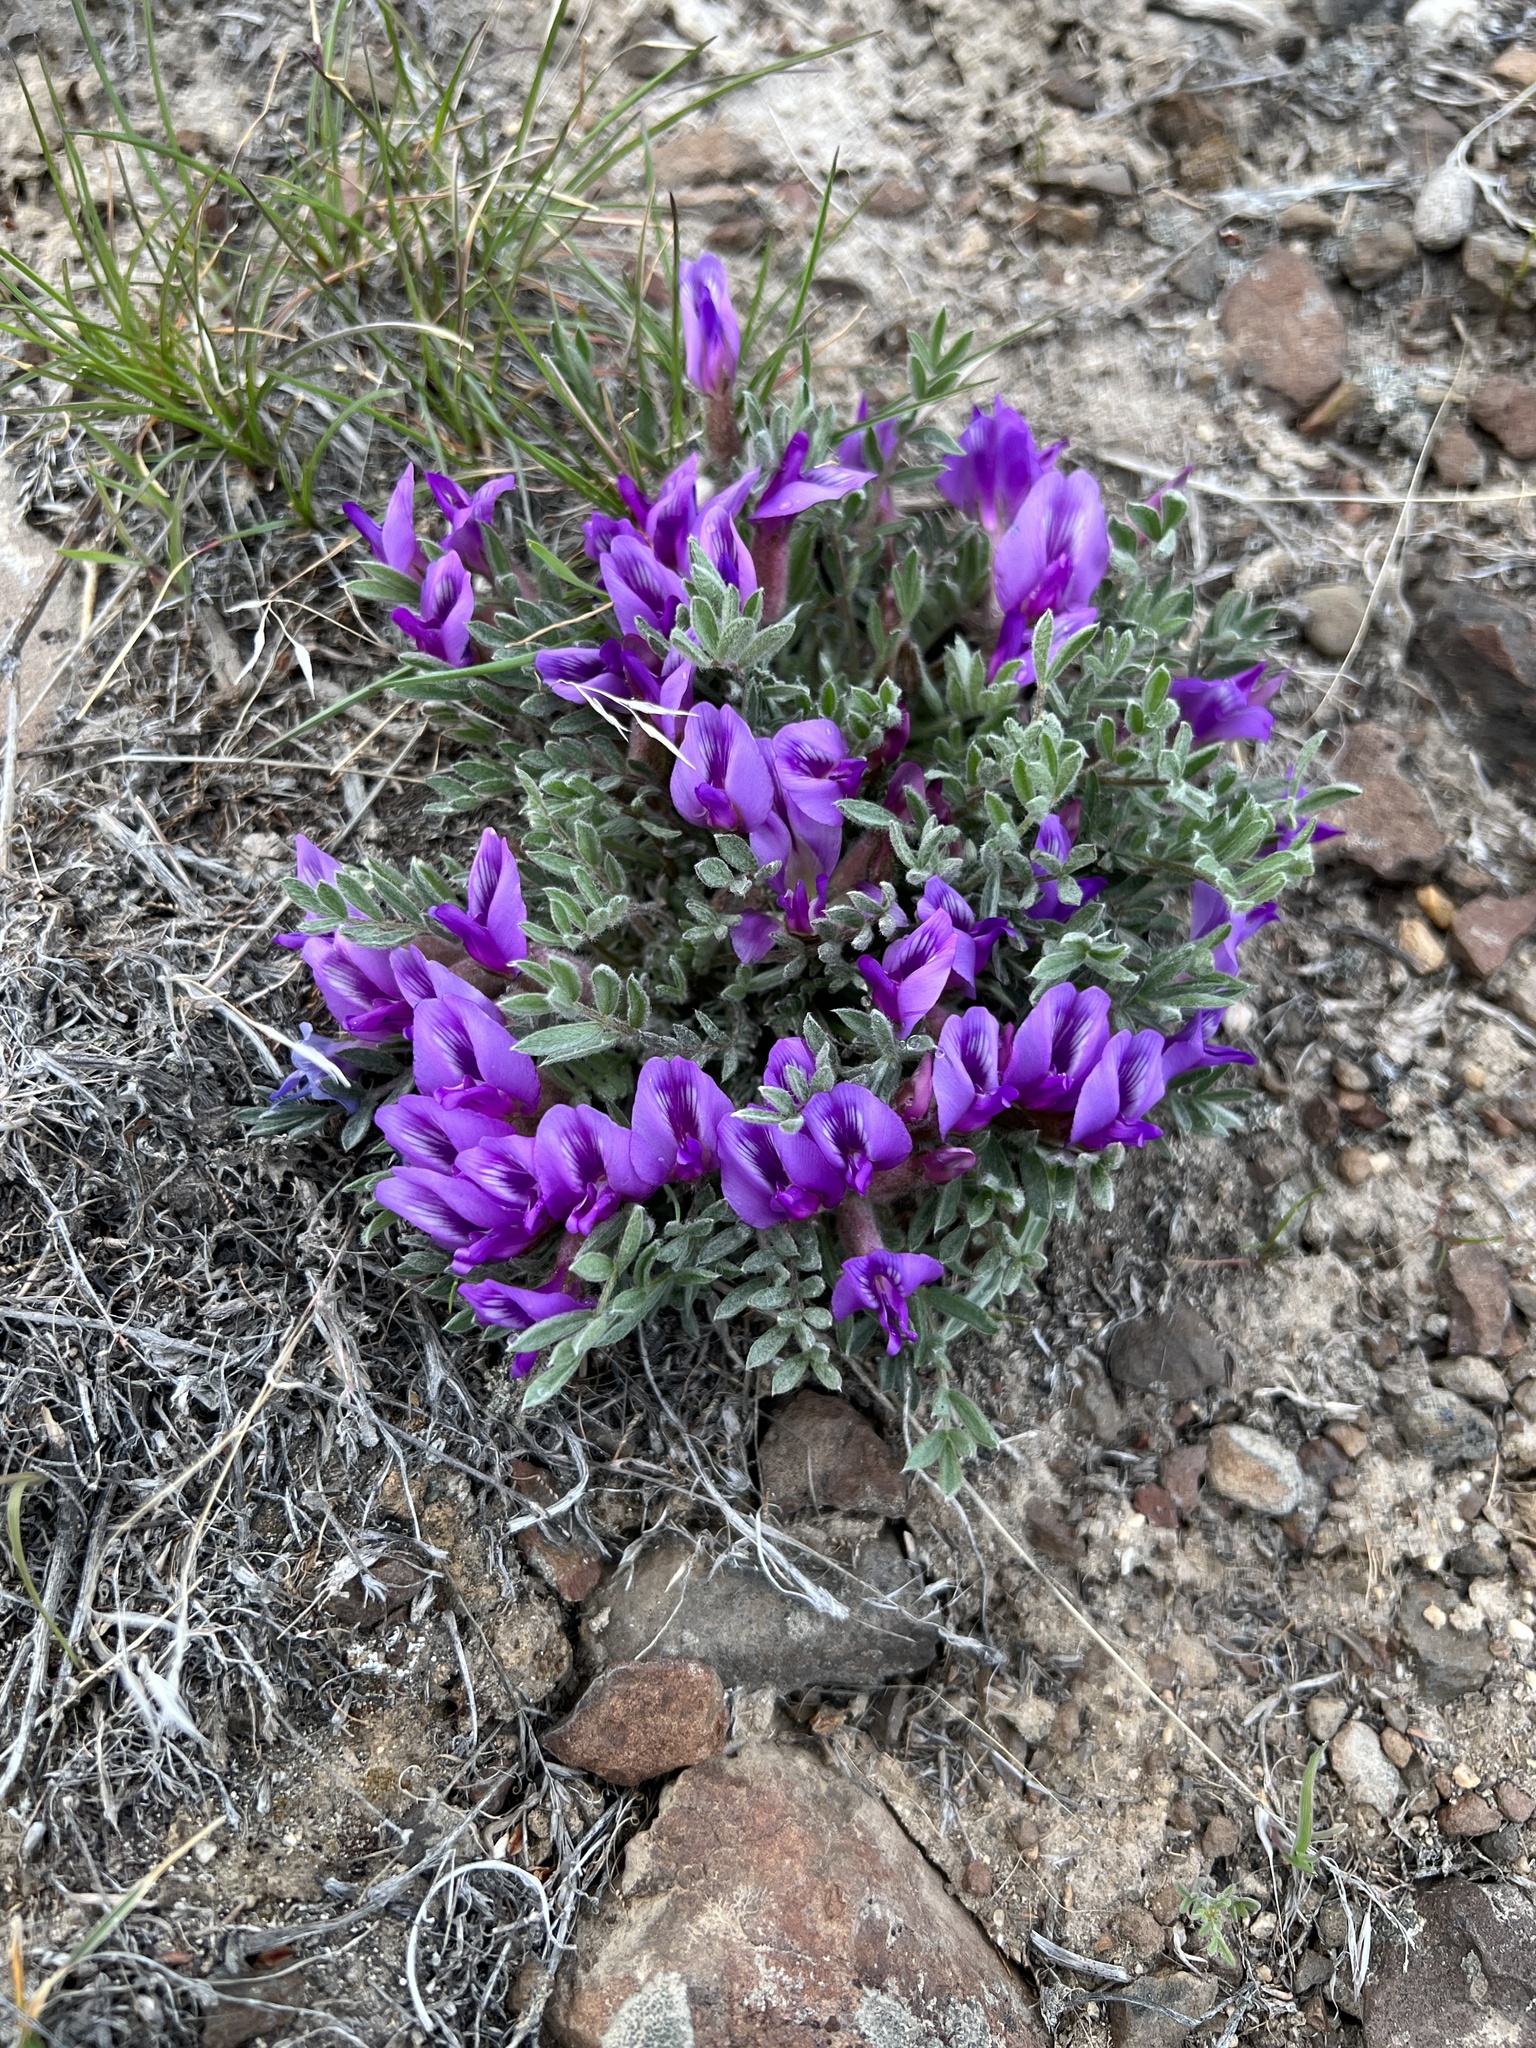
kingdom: Plantae
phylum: Tracheophyta
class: Magnoliopsida
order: Fabales
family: Fabaceae
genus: Astragalus
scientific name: Astragalus purshii
